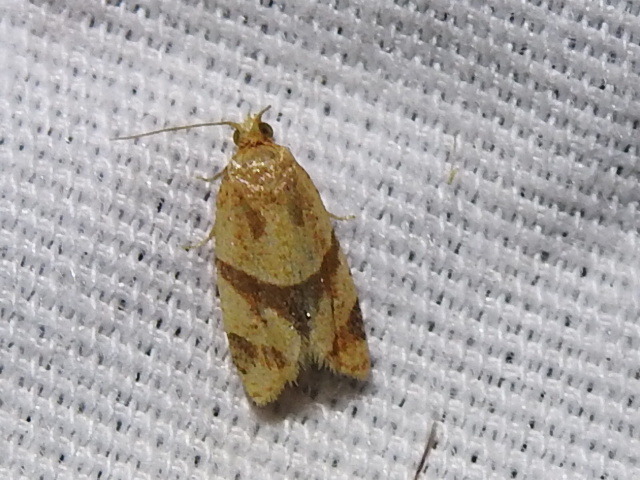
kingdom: Animalia
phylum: Arthropoda
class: Insecta
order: Lepidoptera
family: Tortricidae
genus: Clepsis
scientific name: Clepsis peritana
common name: Garden tortrix
